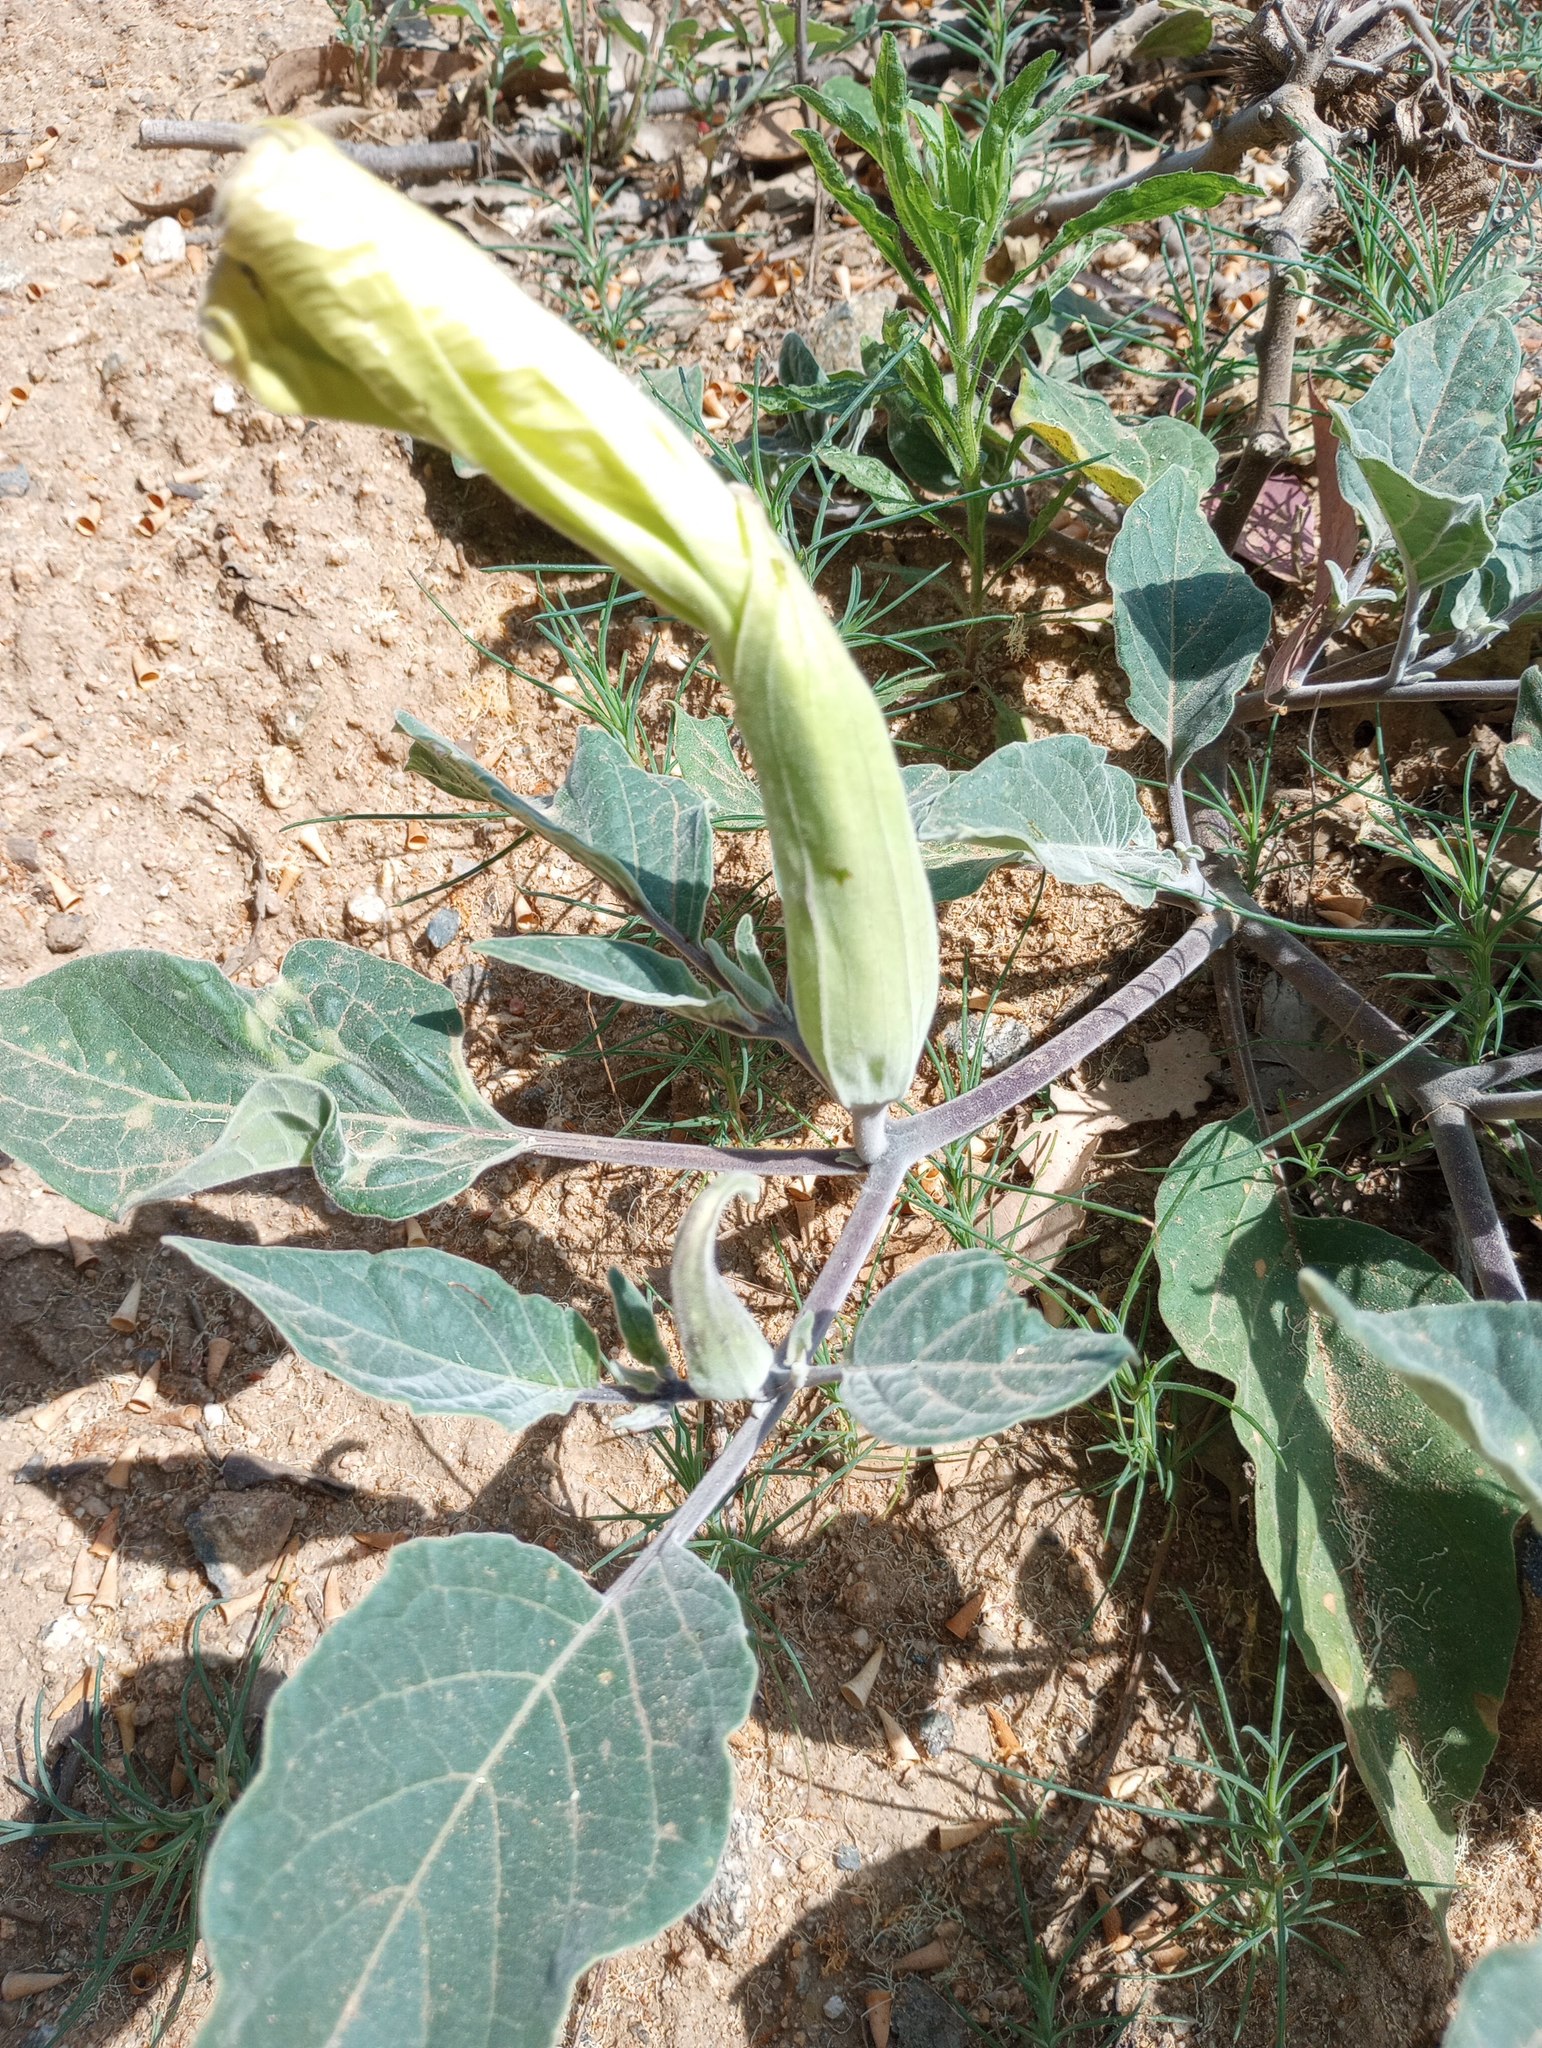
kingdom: Plantae
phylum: Tracheophyta
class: Magnoliopsida
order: Solanales
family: Solanaceae
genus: Datura
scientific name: Datura wrightii
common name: Sacred thorn-apple
